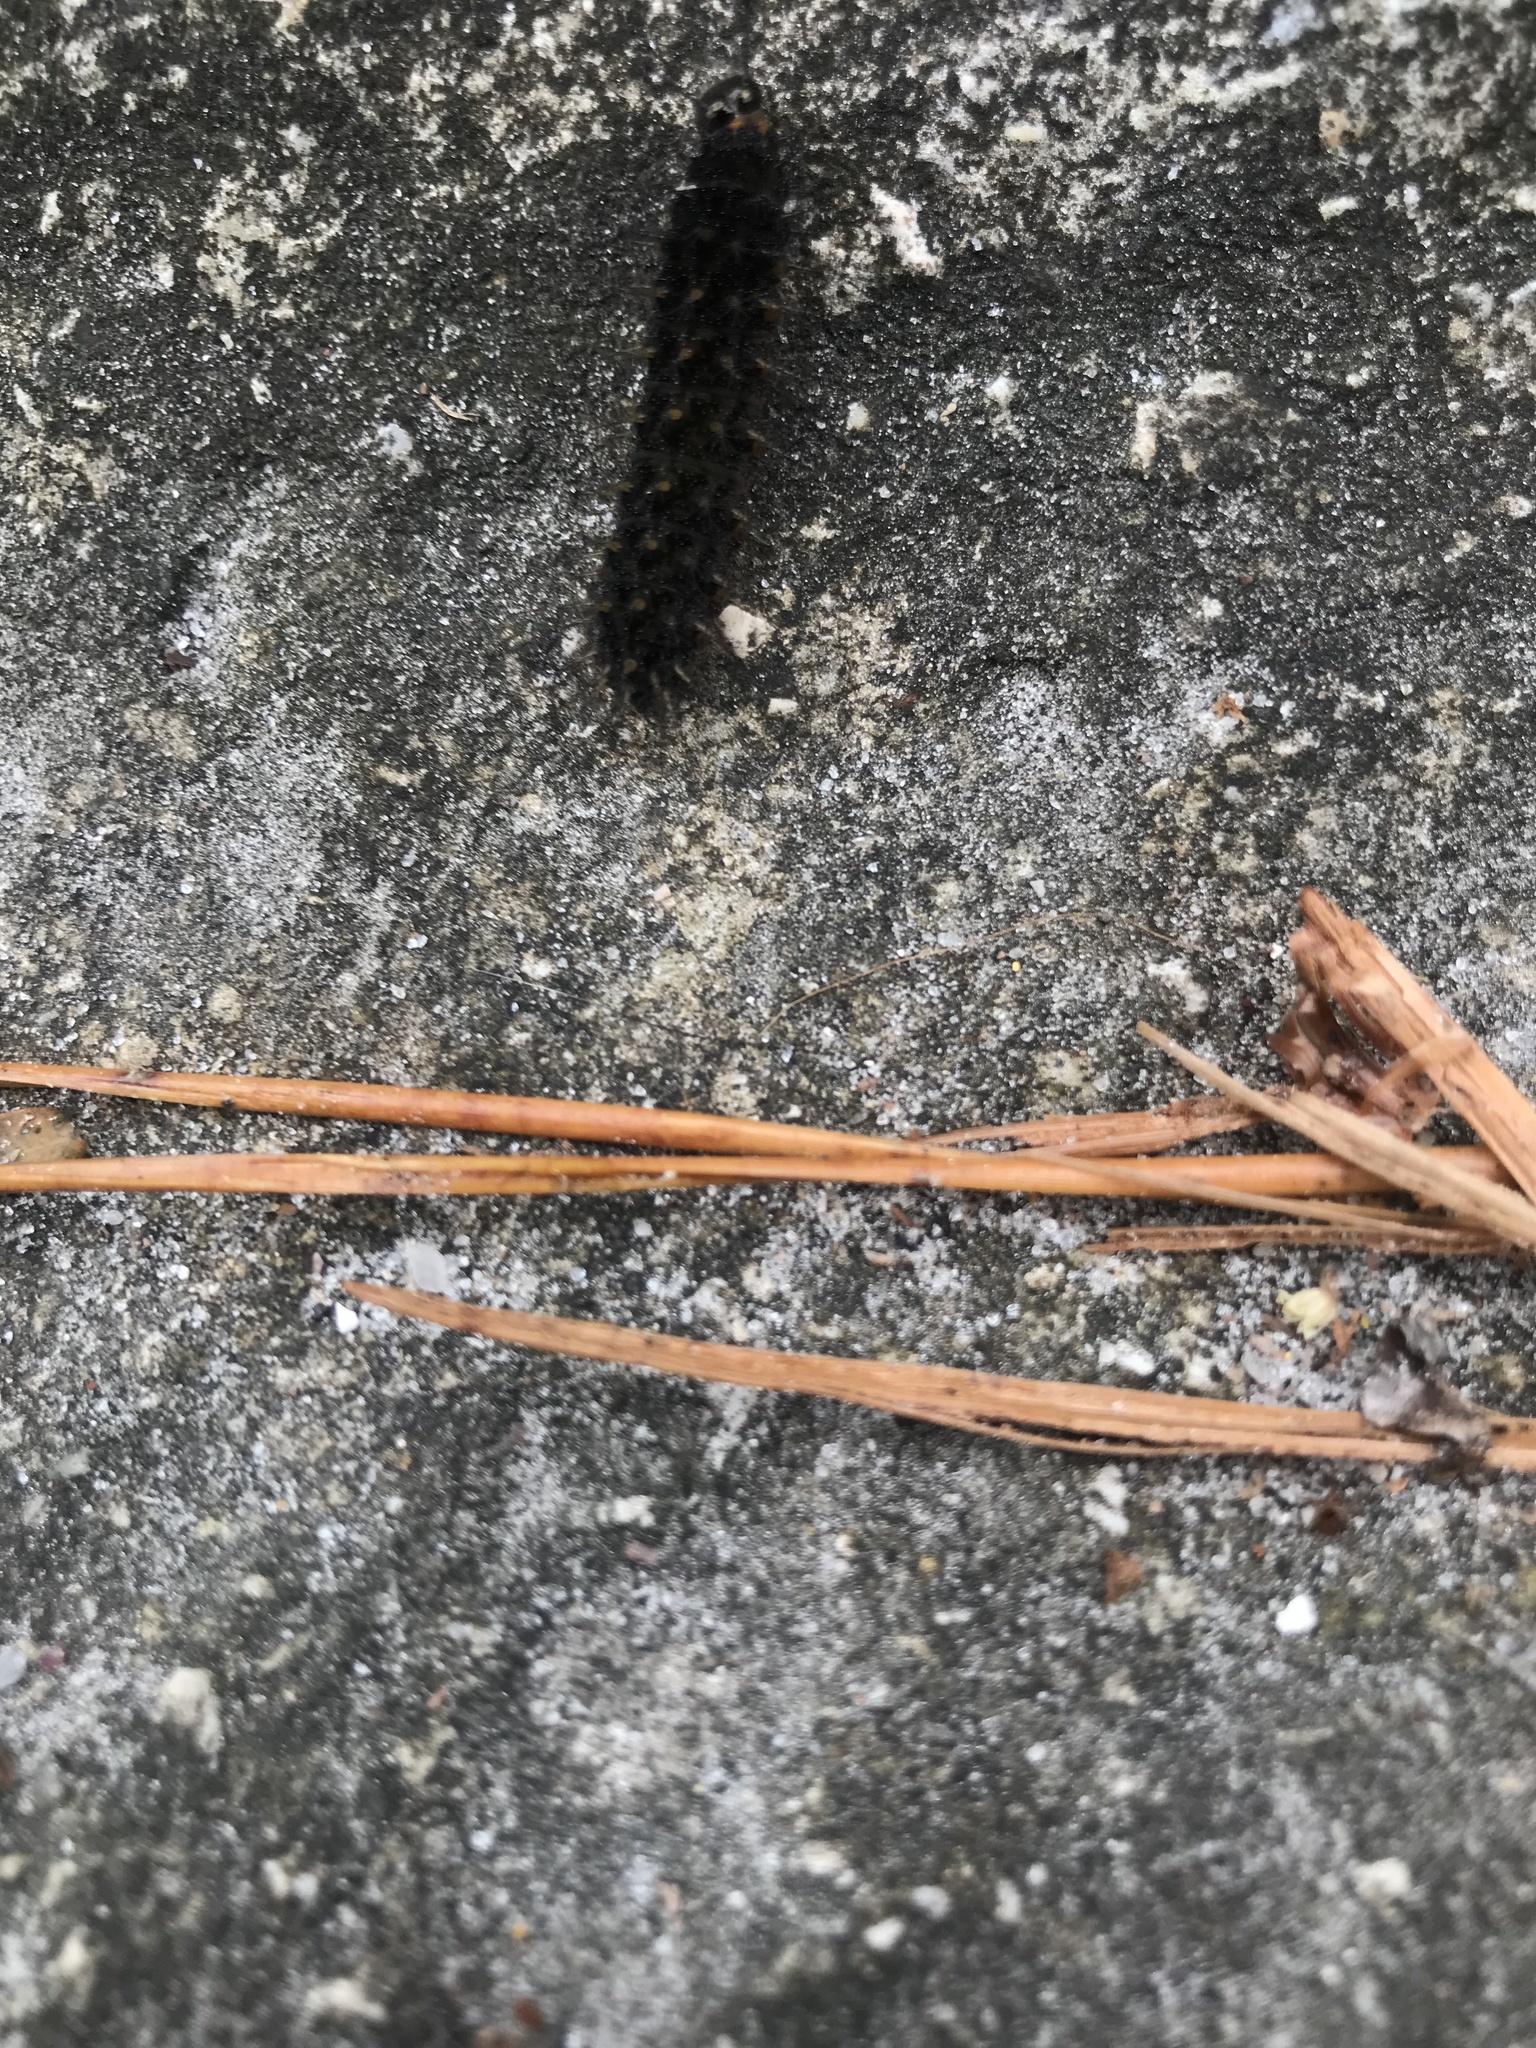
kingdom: Animalia
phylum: Arthropoda
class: Insecta
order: Lepidoptera
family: Nymphalidae
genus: Anartia
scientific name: Anartia jatrophae
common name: White peacock
